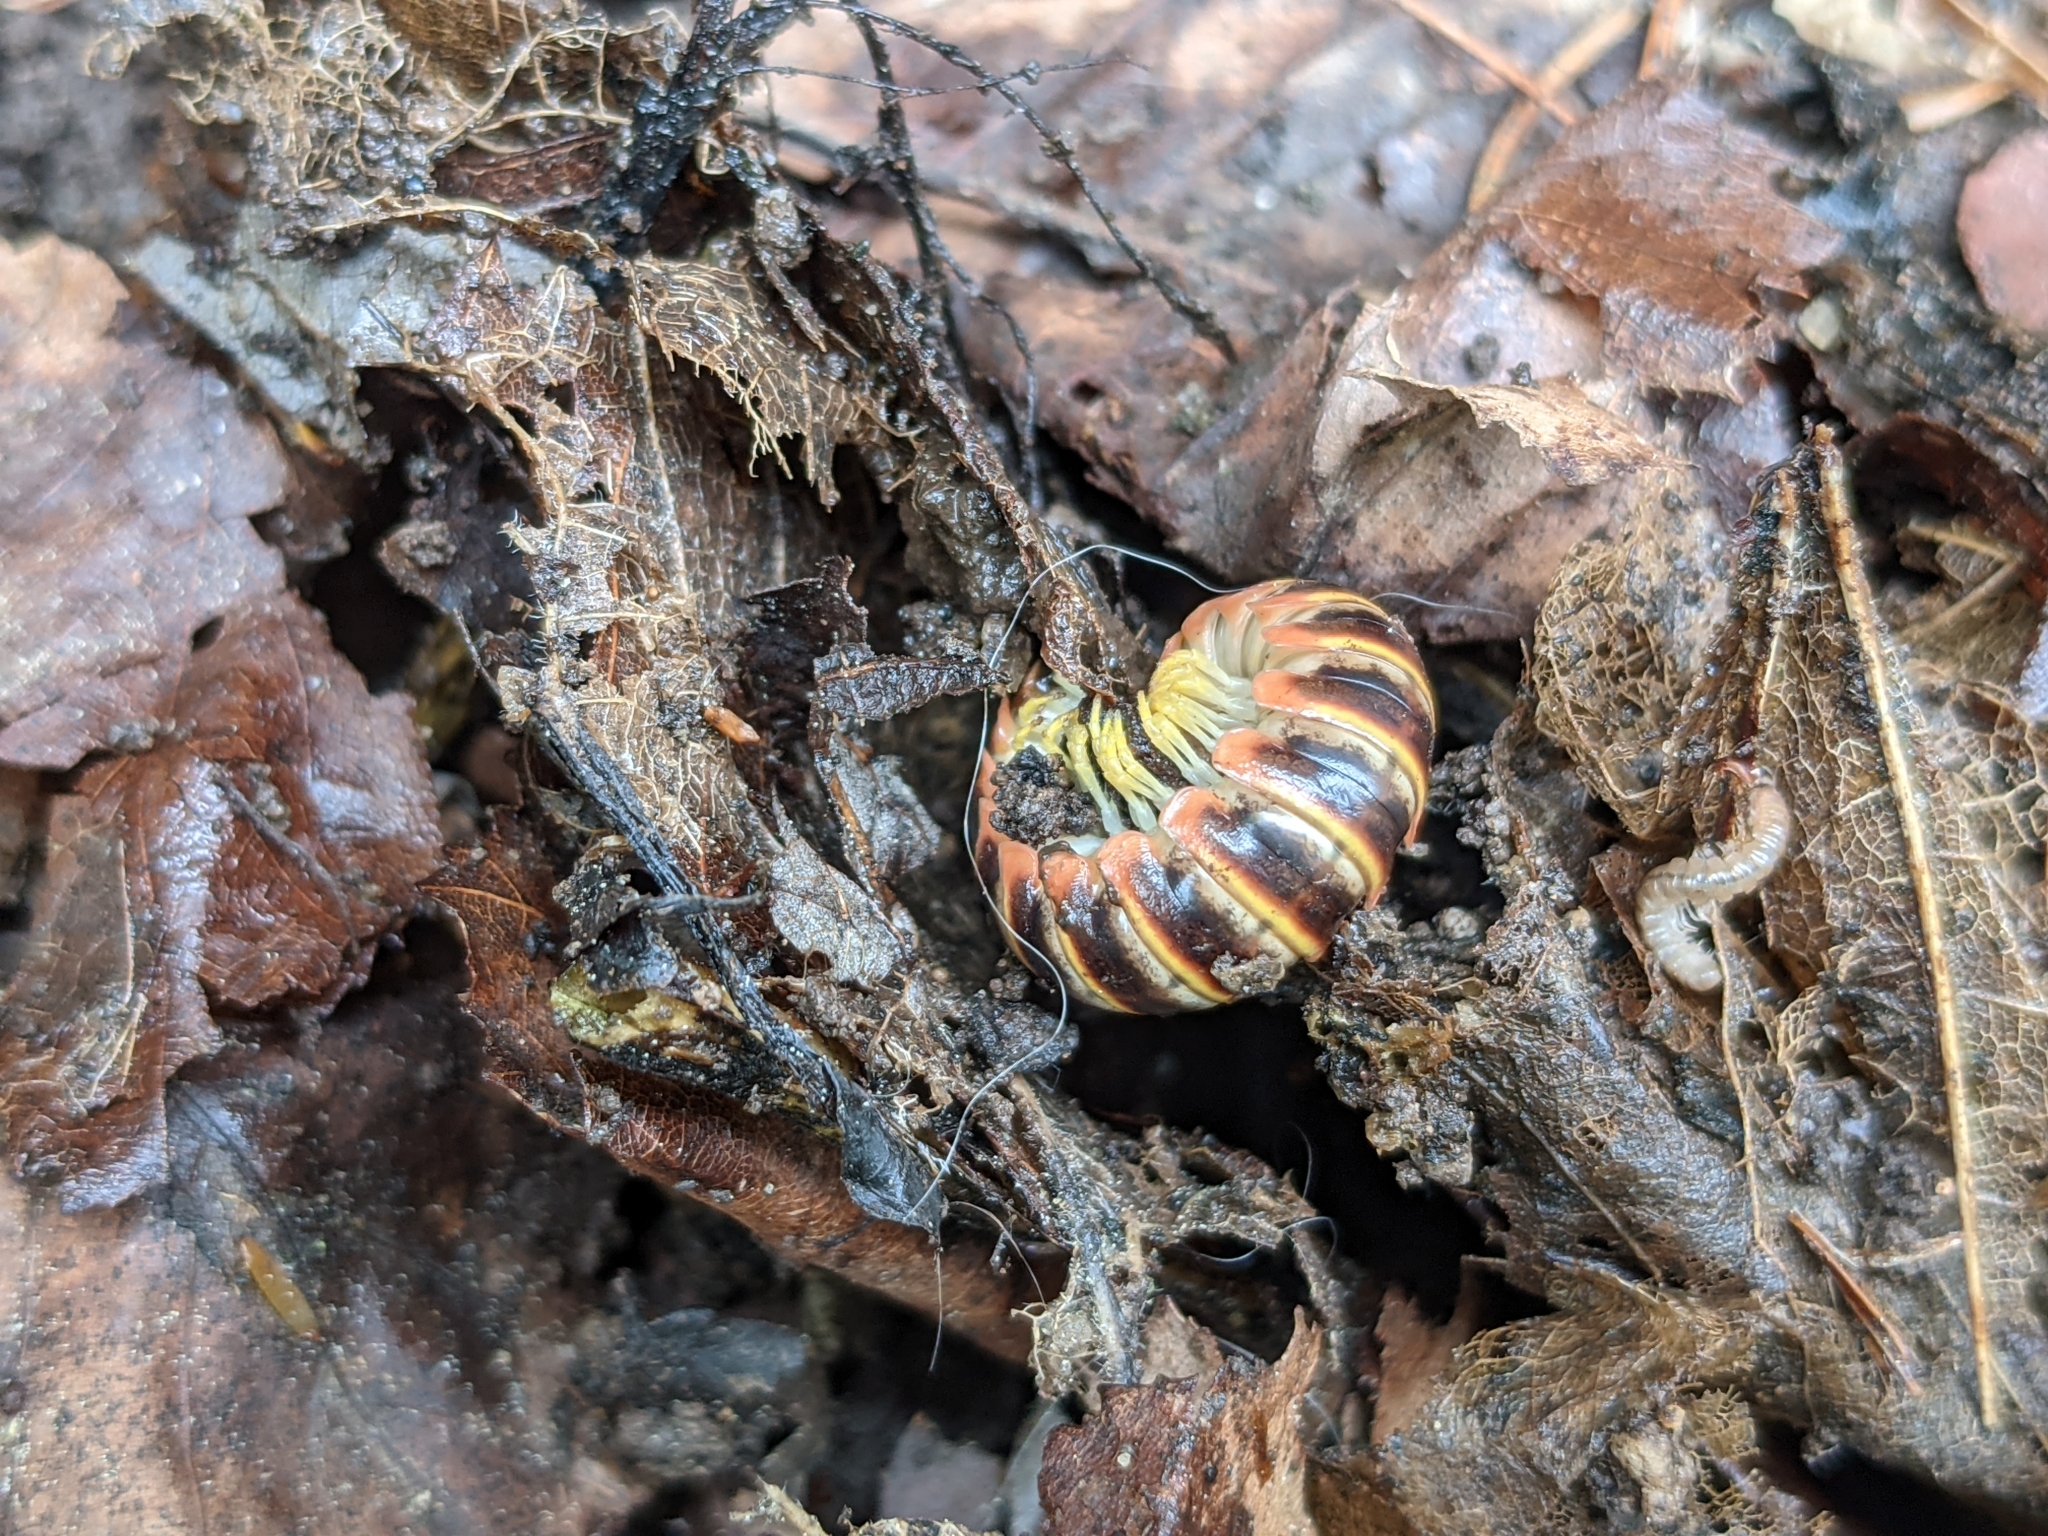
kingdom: Animalia
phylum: Arthropoda
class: Diplopoda
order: Polydesmida
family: Xystodesmidae
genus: Apheloria
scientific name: Apheloria virginiensis
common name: Black-and-gold flat millipede
